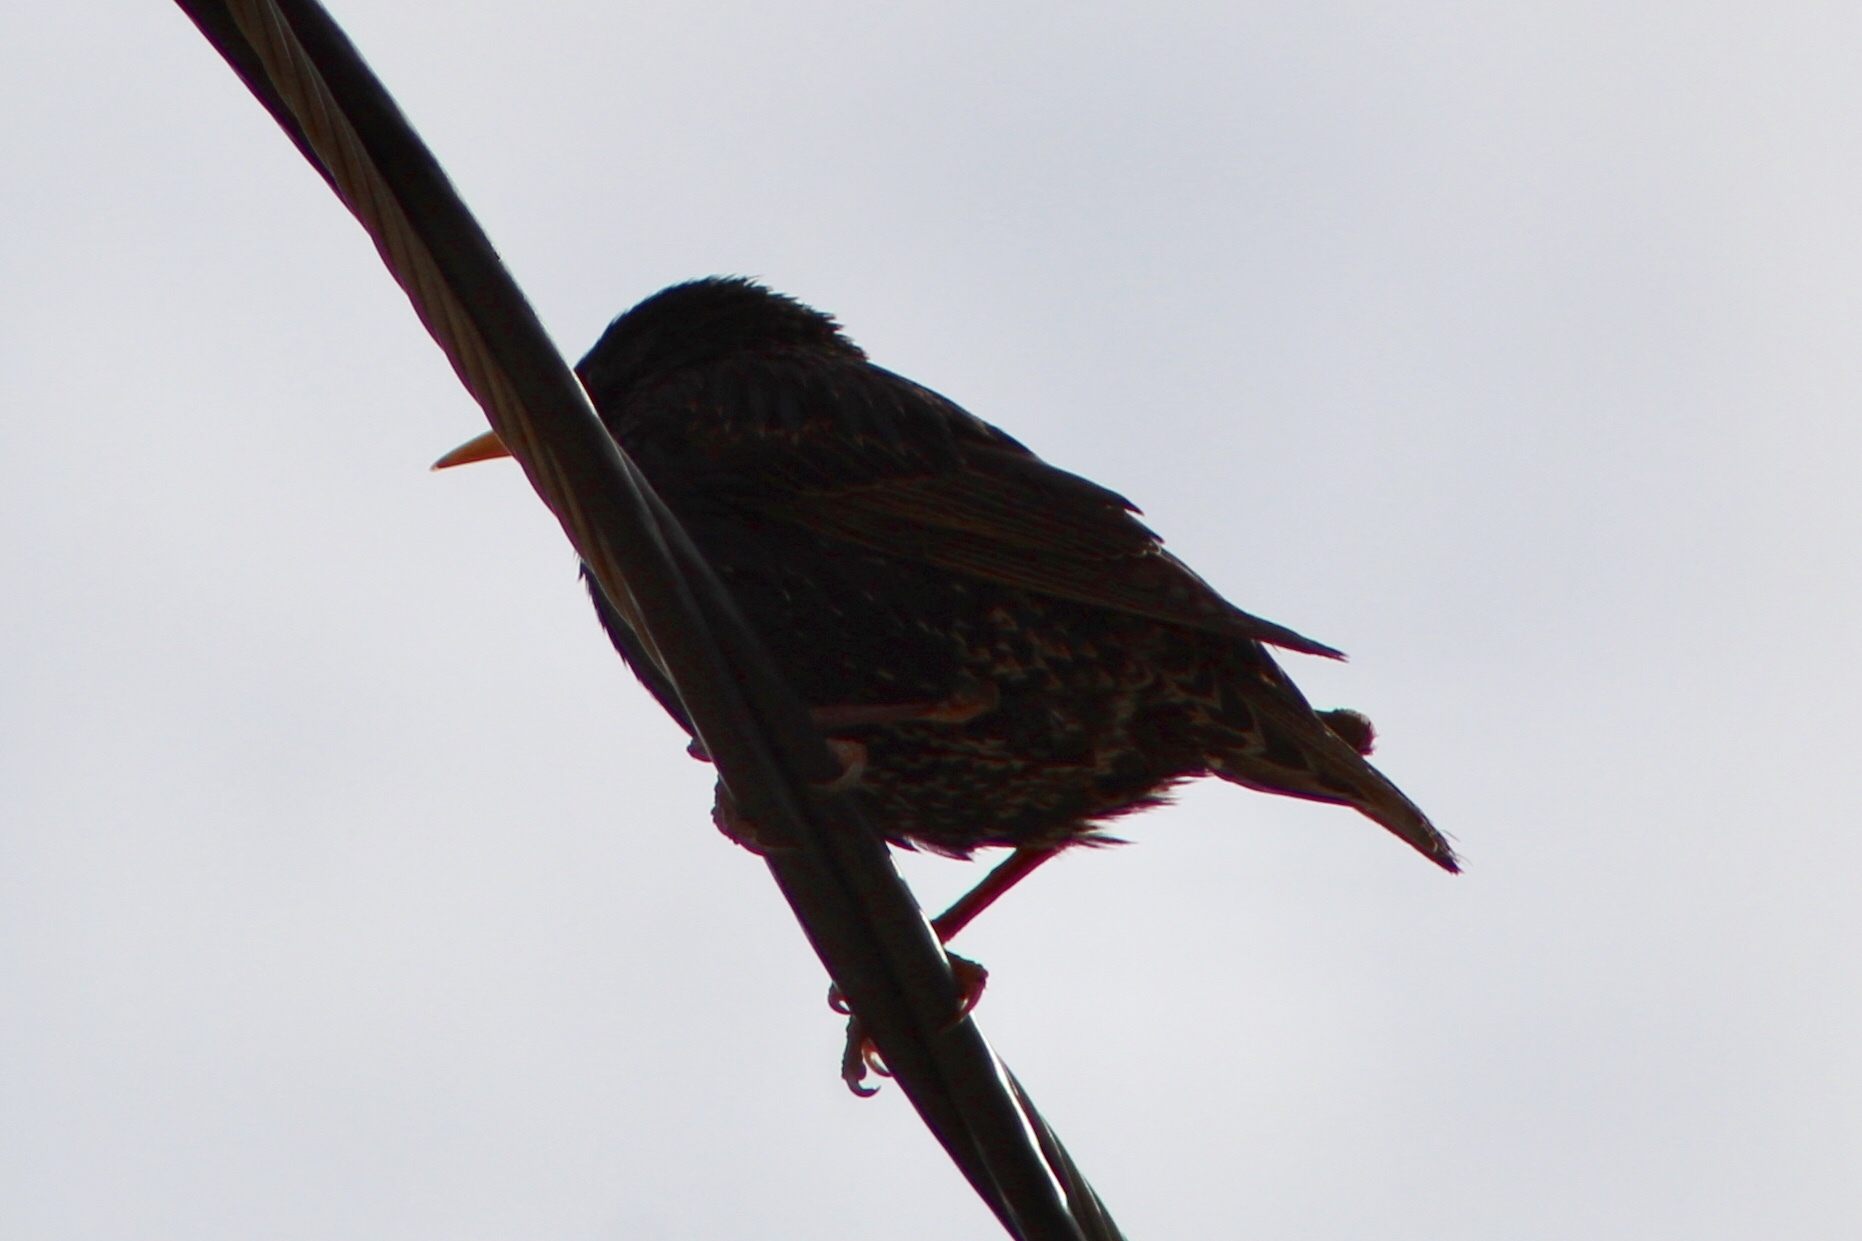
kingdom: Animalia
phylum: Chordata
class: Aves
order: Passeriformes
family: Sturnidae
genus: Sturnus
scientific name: Sturnus vulgaris
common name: Common starling
